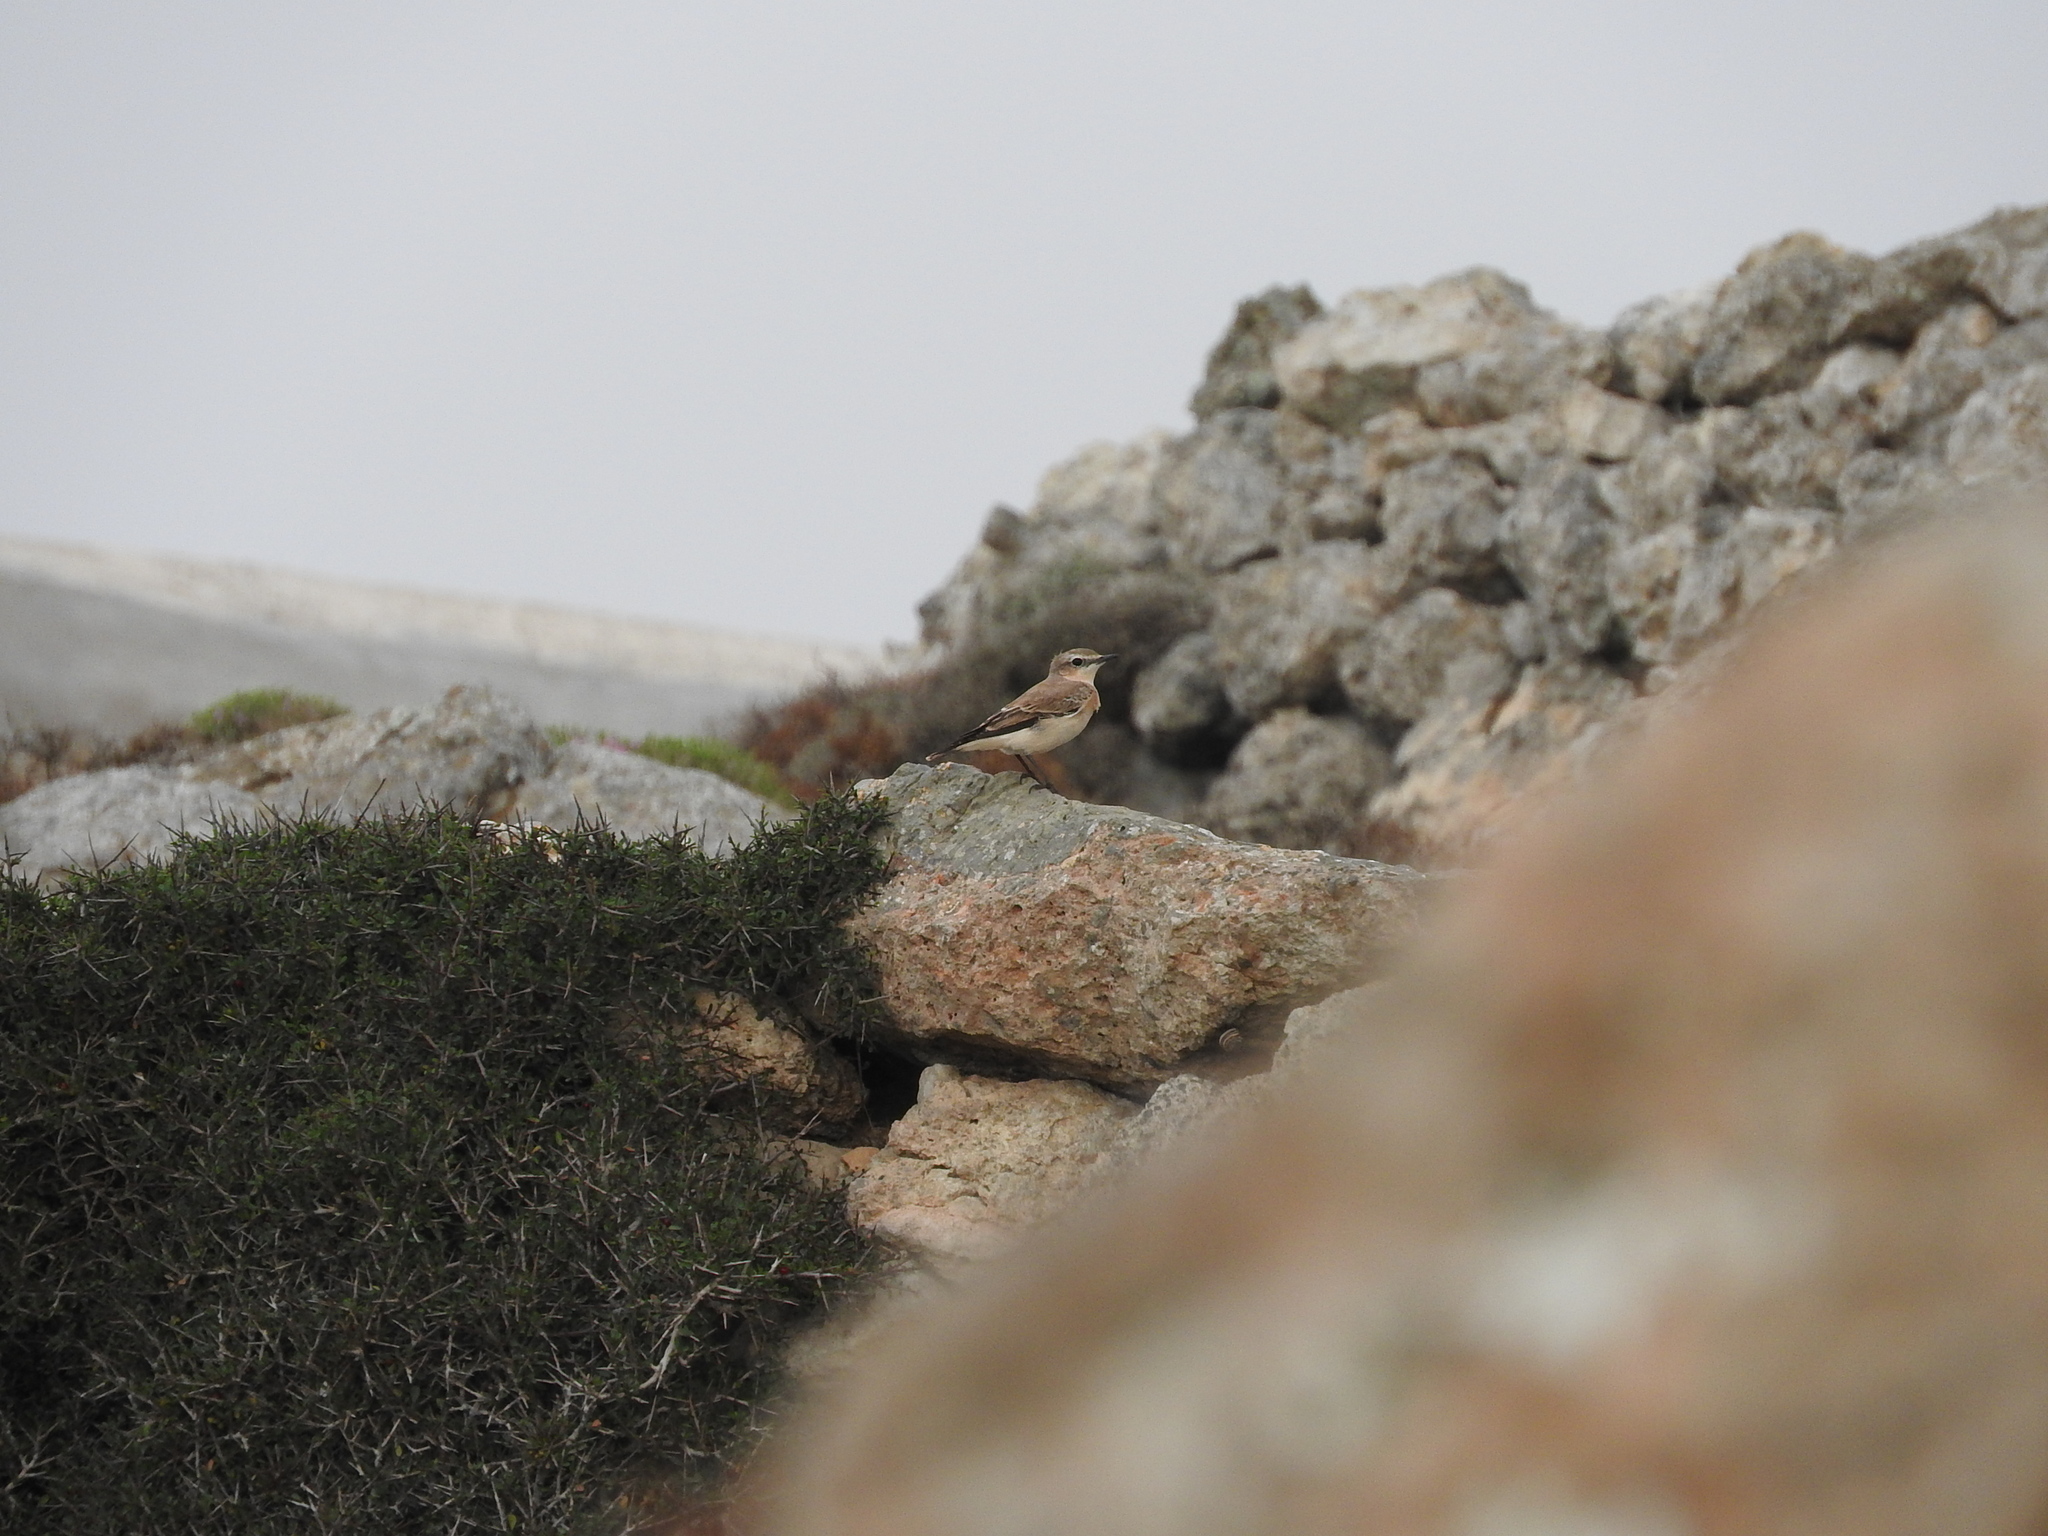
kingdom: Animalia
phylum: Chordata
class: Aves
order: Passeriformes
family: Muscicapidae
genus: Oenanthe
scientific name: Oenanthe oenanthe
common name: Northern wheatear
